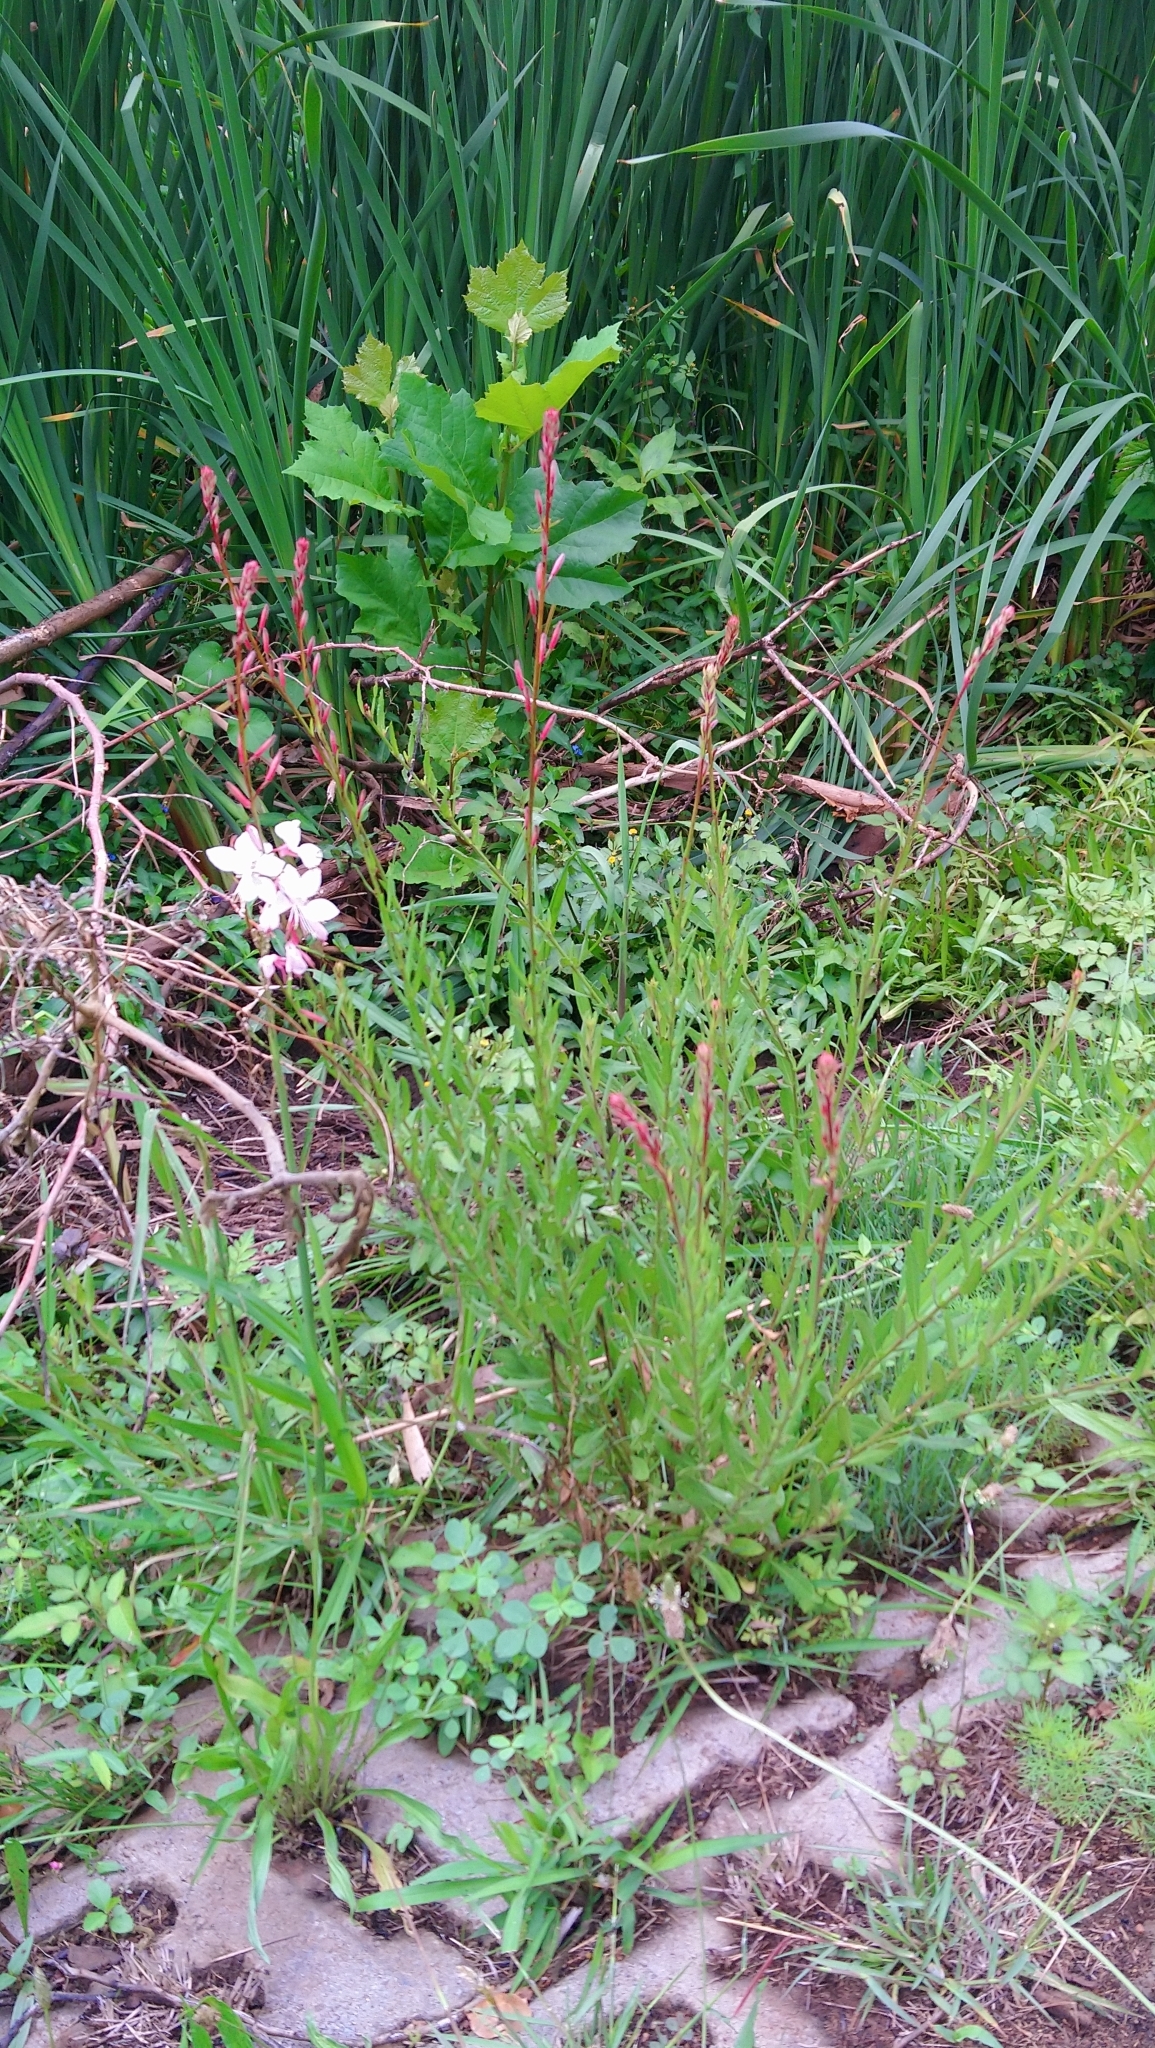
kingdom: Plantae
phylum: Tracheophyta
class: Magnoliopsida
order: Myrtales
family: Onagraceae
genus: Oenothera
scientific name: Oenothera lindheimeri
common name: Lindheimer's beeblossom
